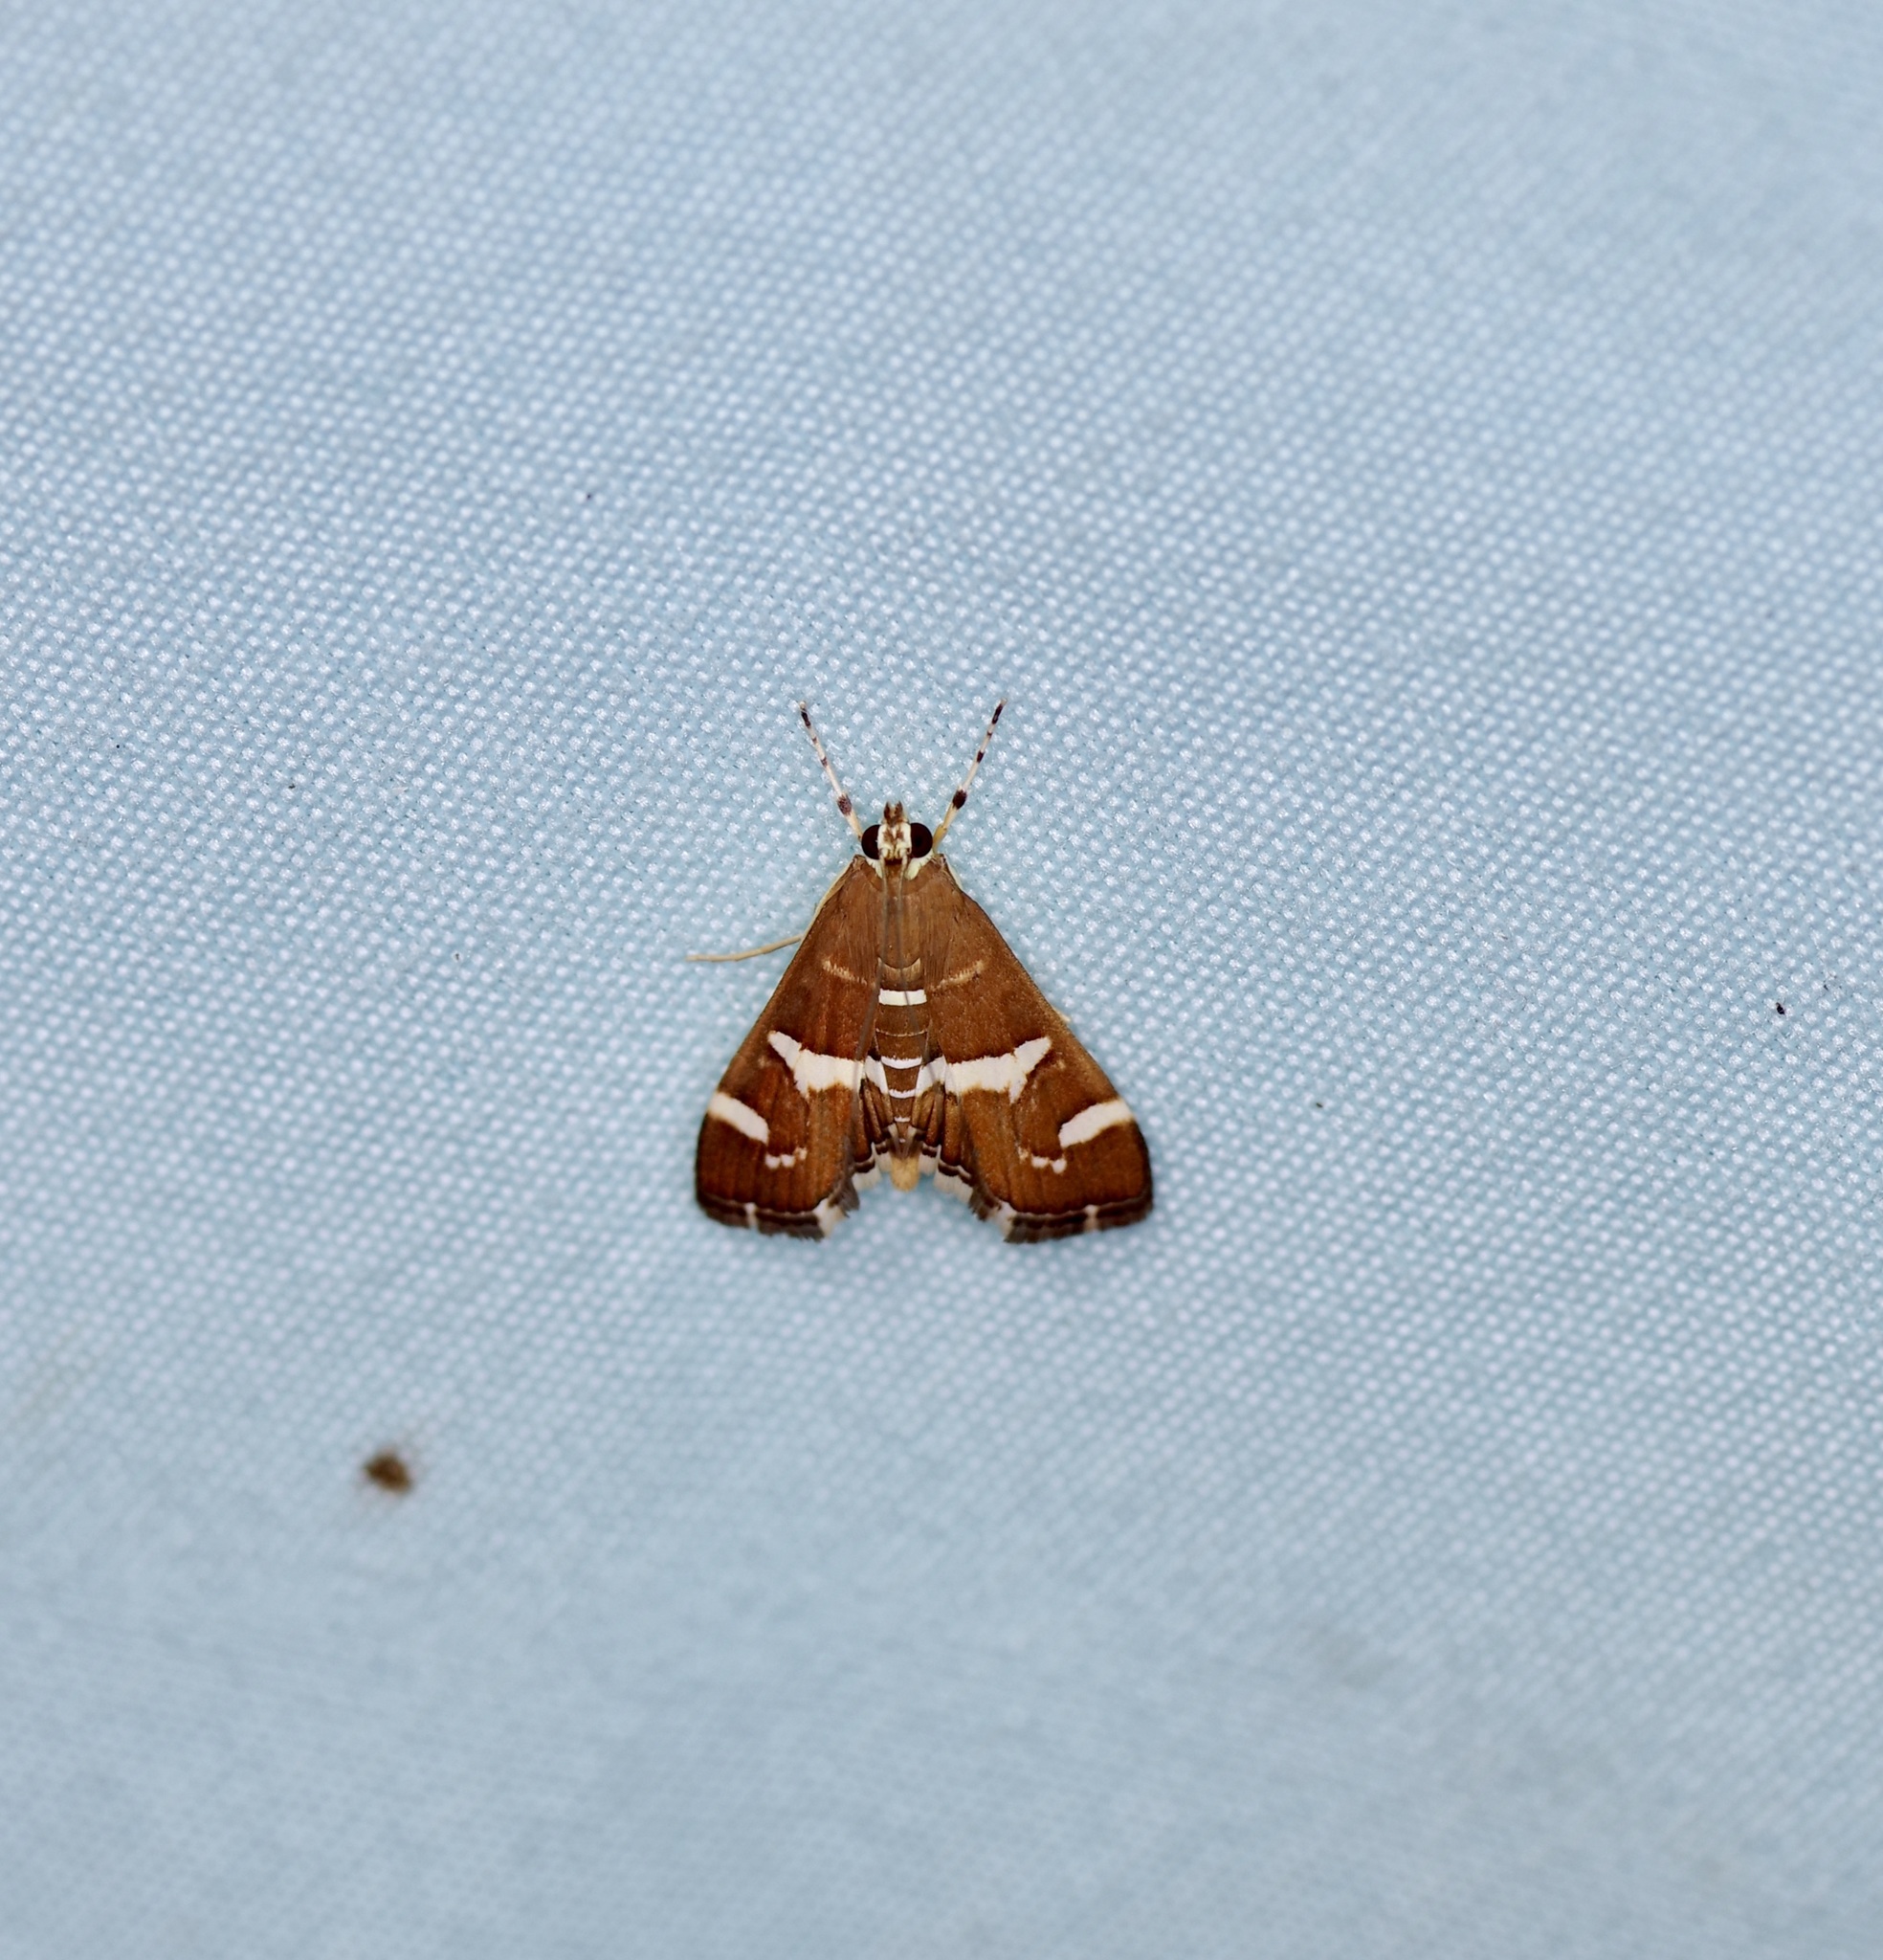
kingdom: Animalia
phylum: Arthropoda
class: Insecta
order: Lepidoptera
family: Crambidae
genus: Spoladea
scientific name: Spoladea recurvalis
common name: Beet webworm moth
